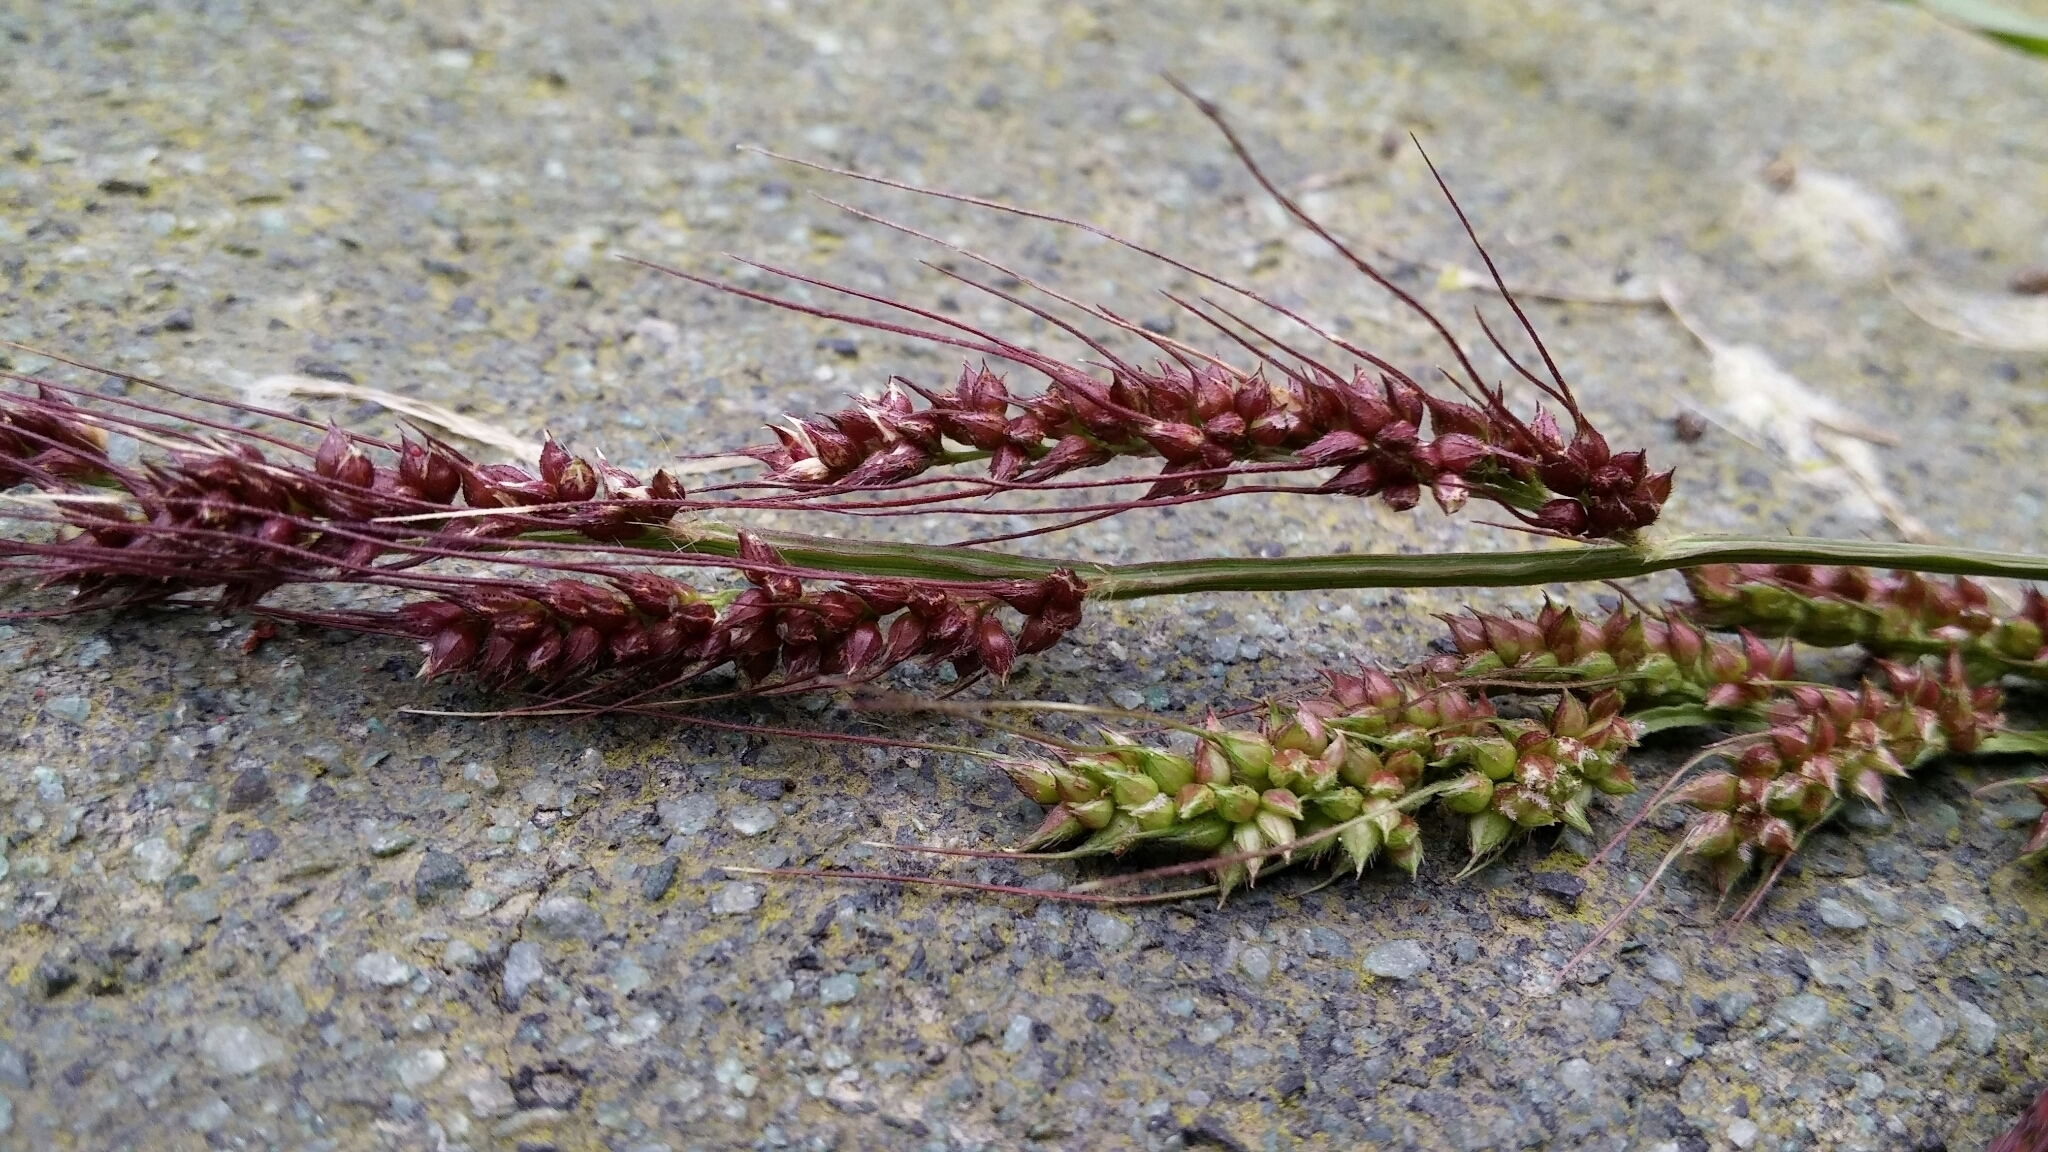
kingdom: Plantae
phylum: Tracheophyta
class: Liliopsida
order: Poales
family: Poaceae
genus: Echinochloa
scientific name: Echinochloa crus-galli
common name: Cockspur
